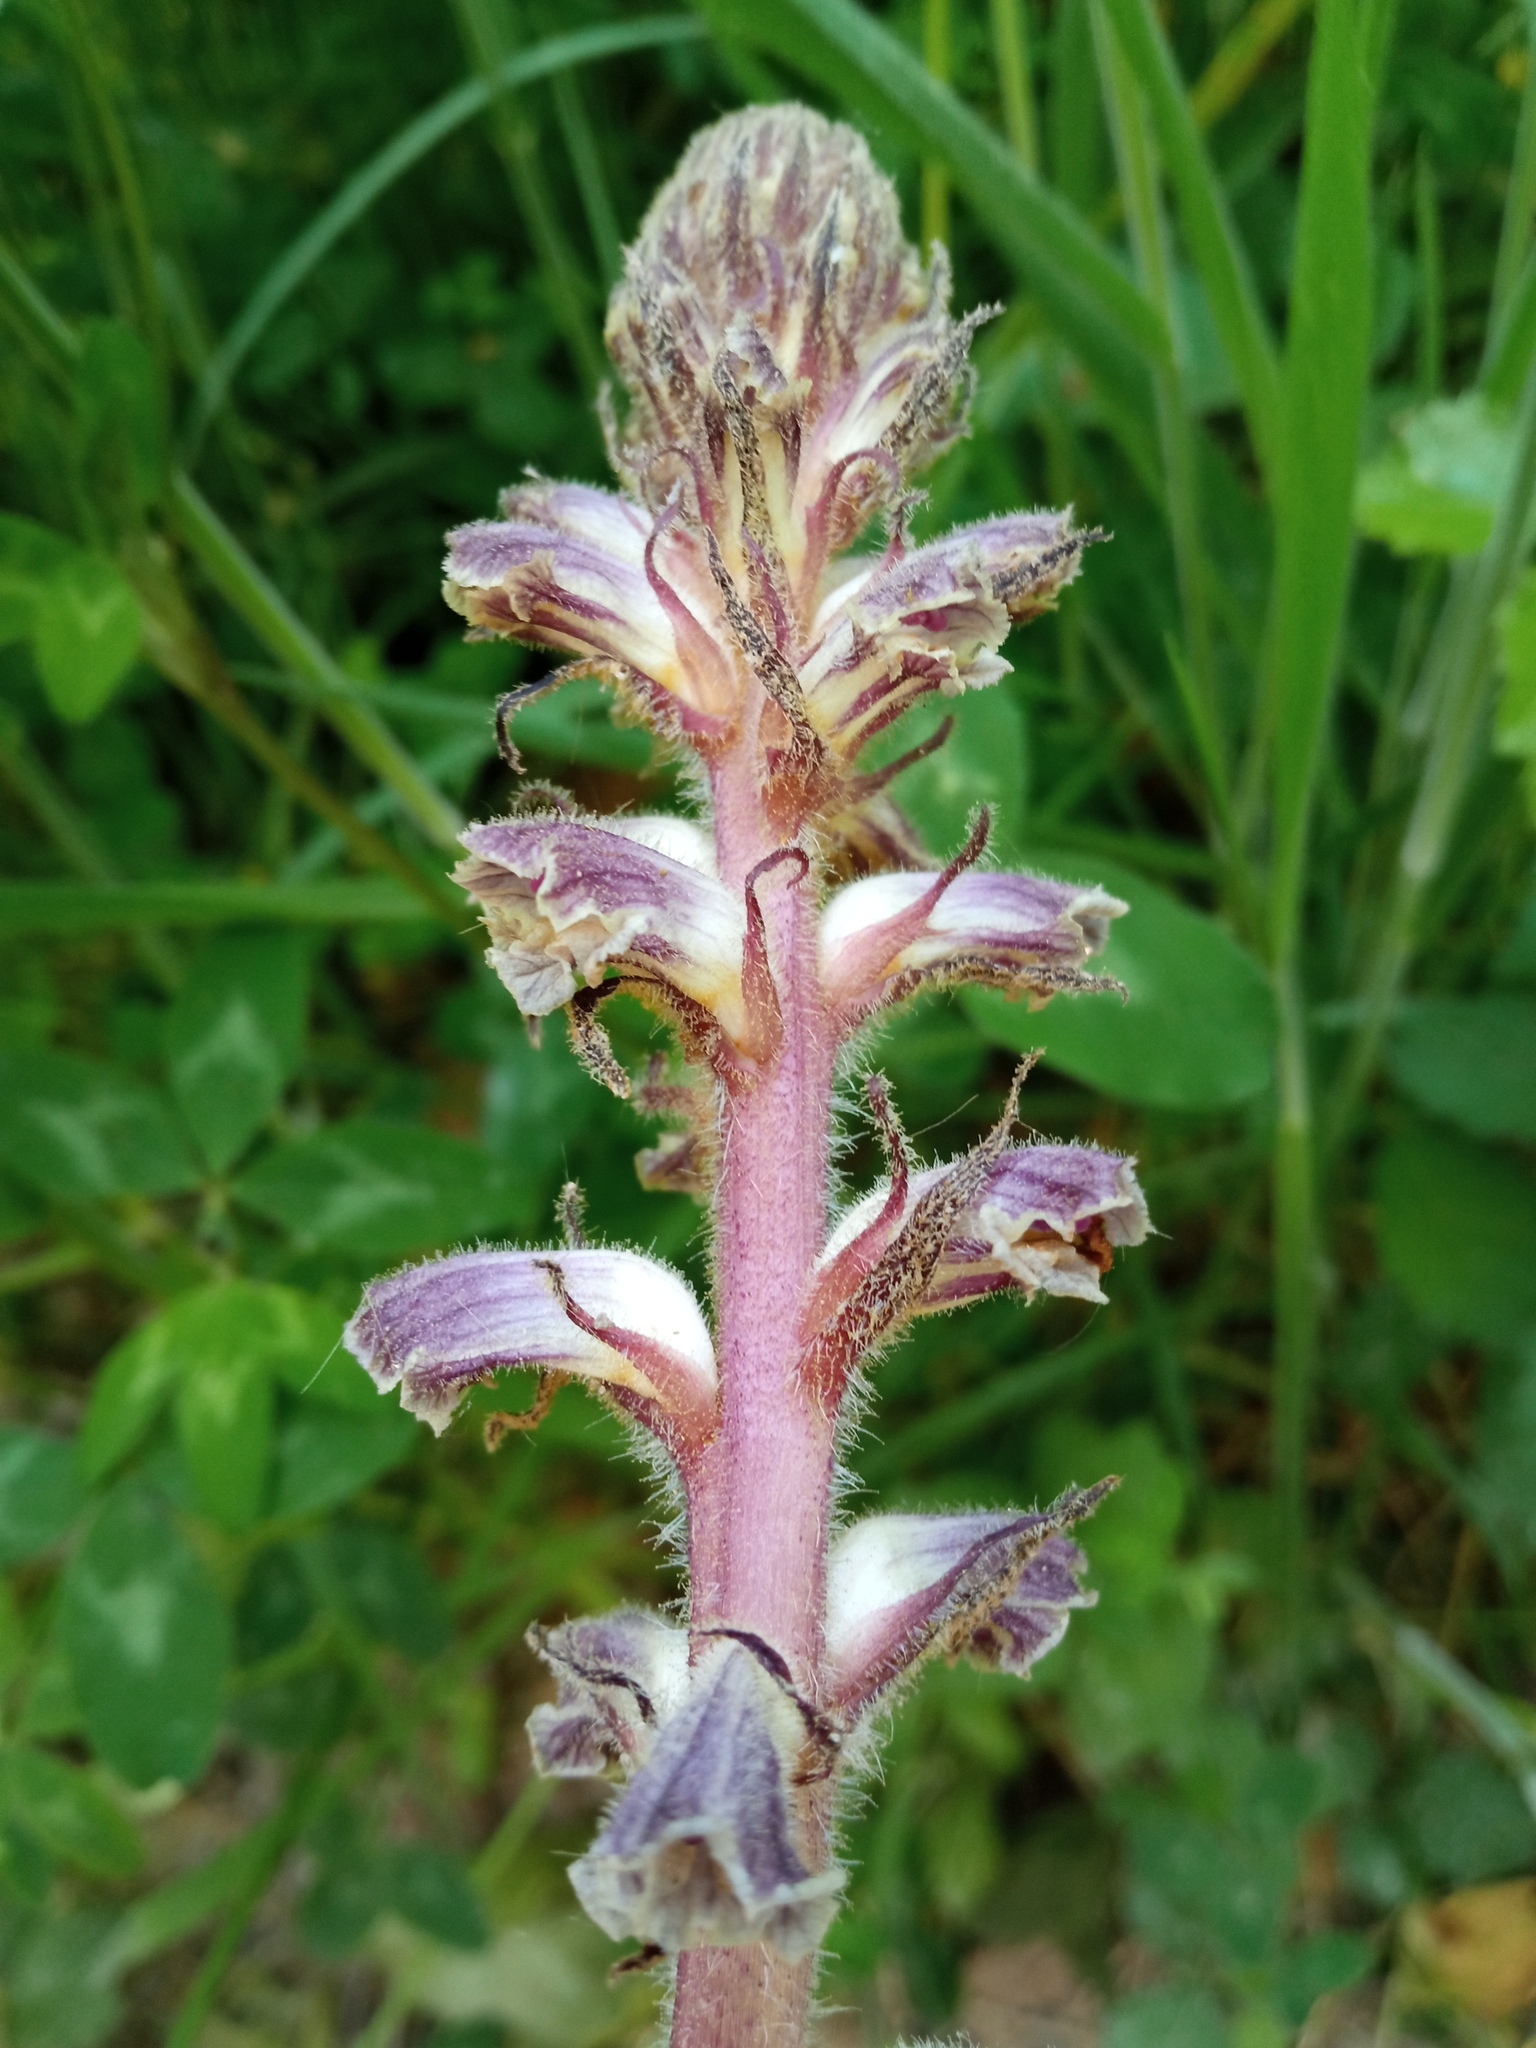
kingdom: Plantae
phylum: Tracheophyta
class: Magnoliopsida
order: Lamiales
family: Orobanchaceae
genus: Orobanche
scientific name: Orobanche minor
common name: Common broomrape
